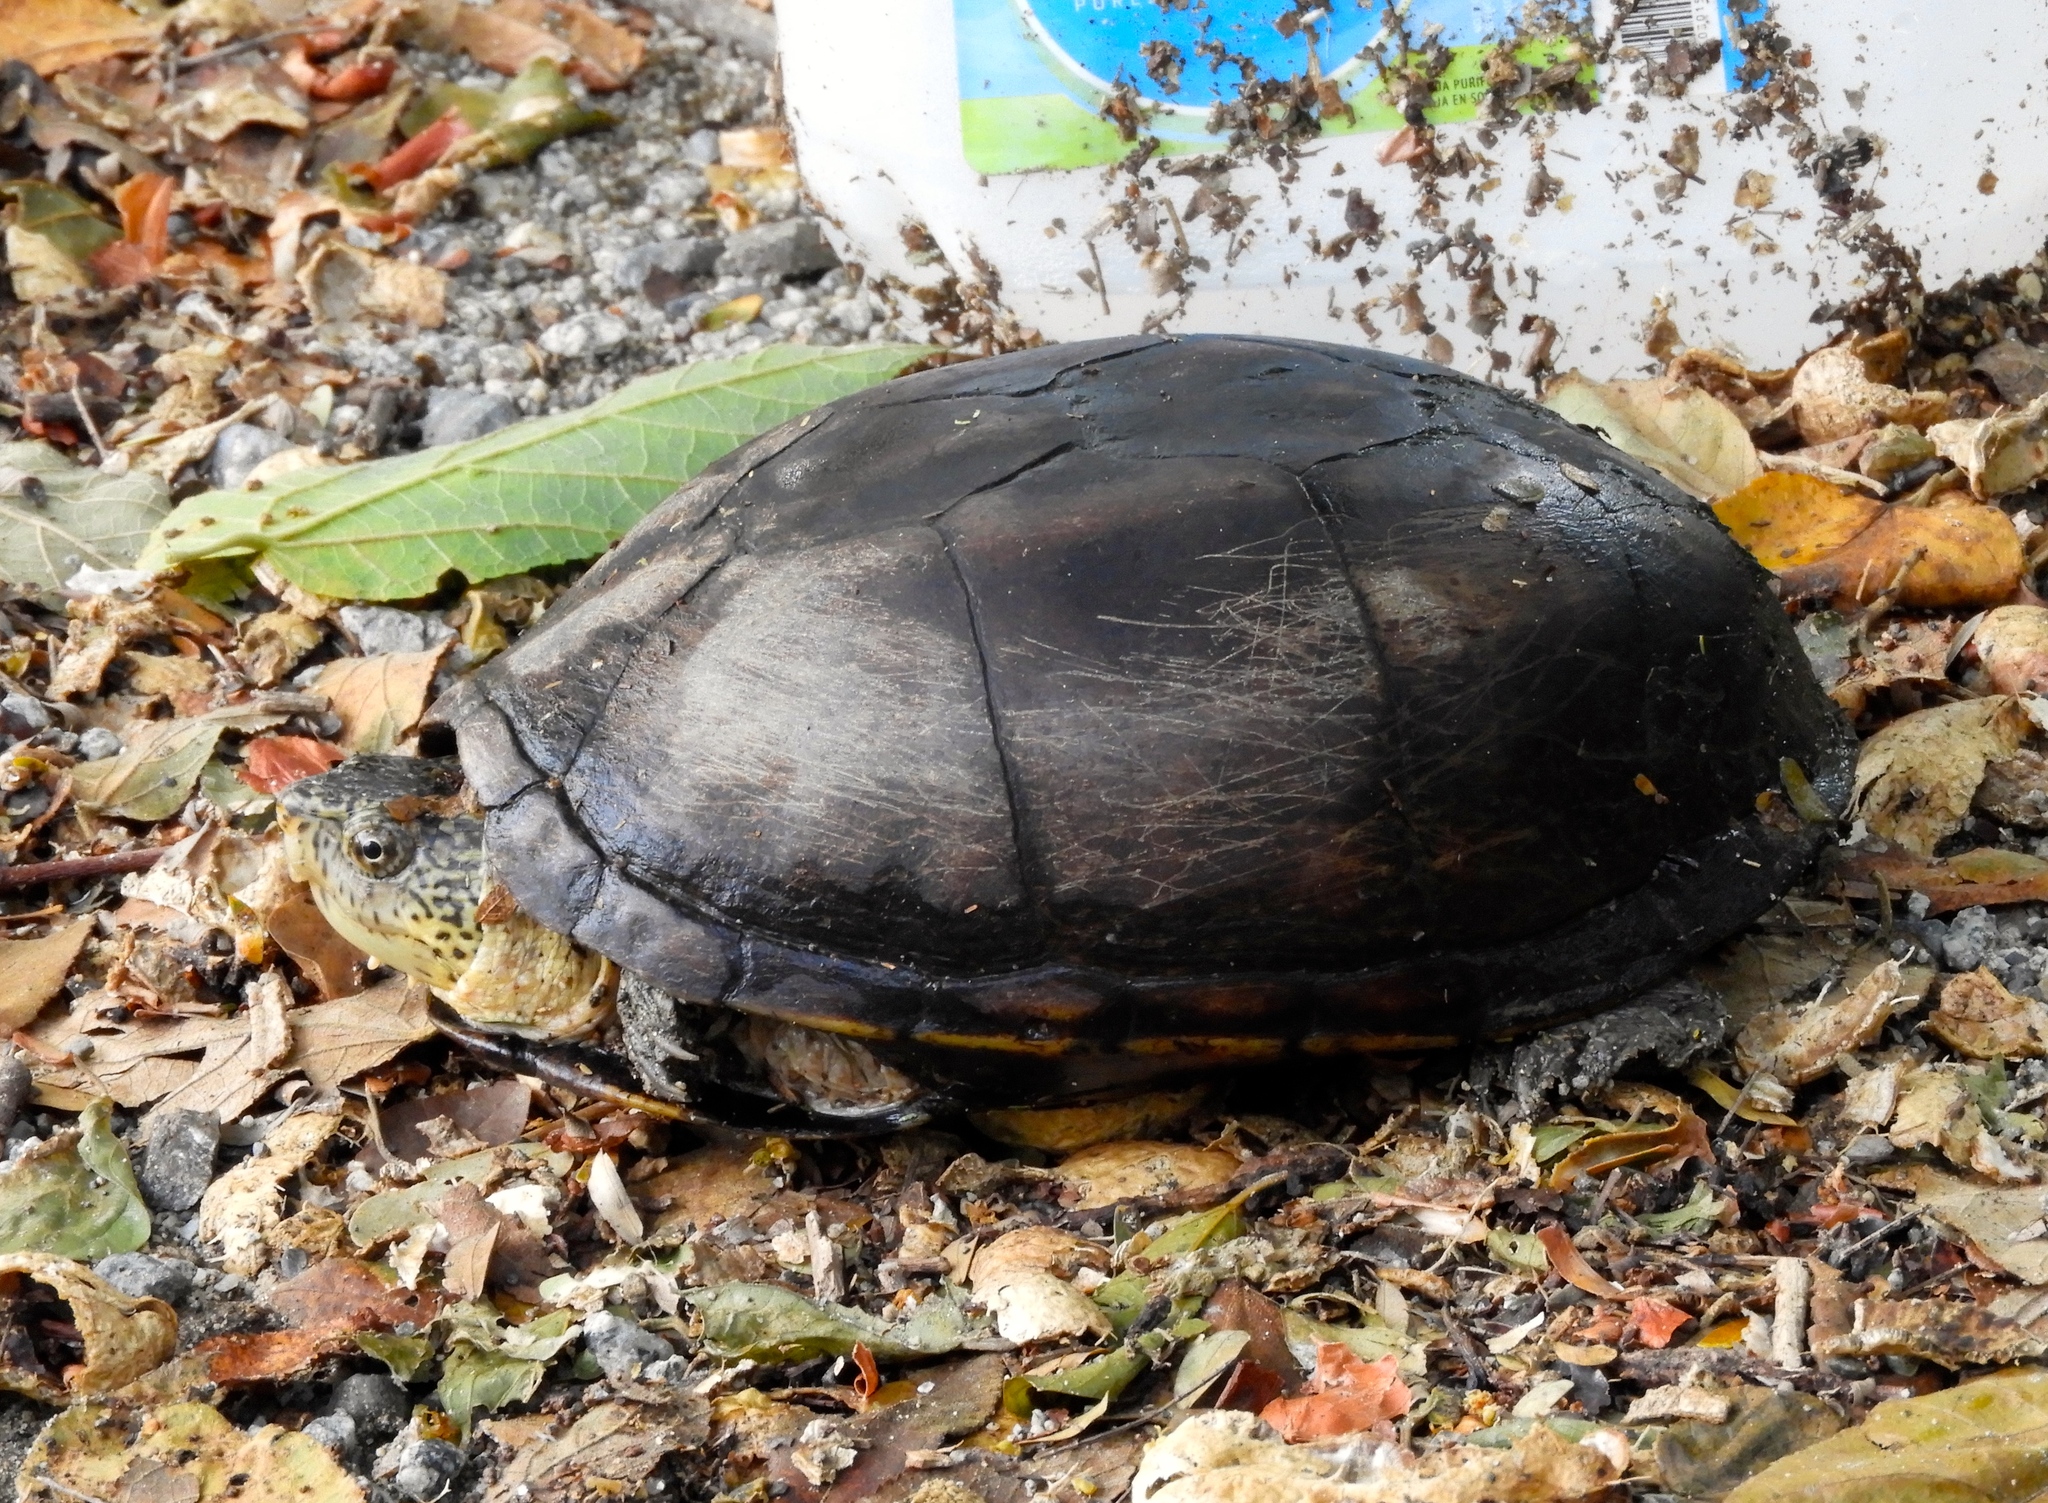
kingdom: Animalia
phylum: Chordata
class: Testudines
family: Kinosternidae
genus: Kinosternon
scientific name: Kinosternon integrum
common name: Mexican mud turtle
